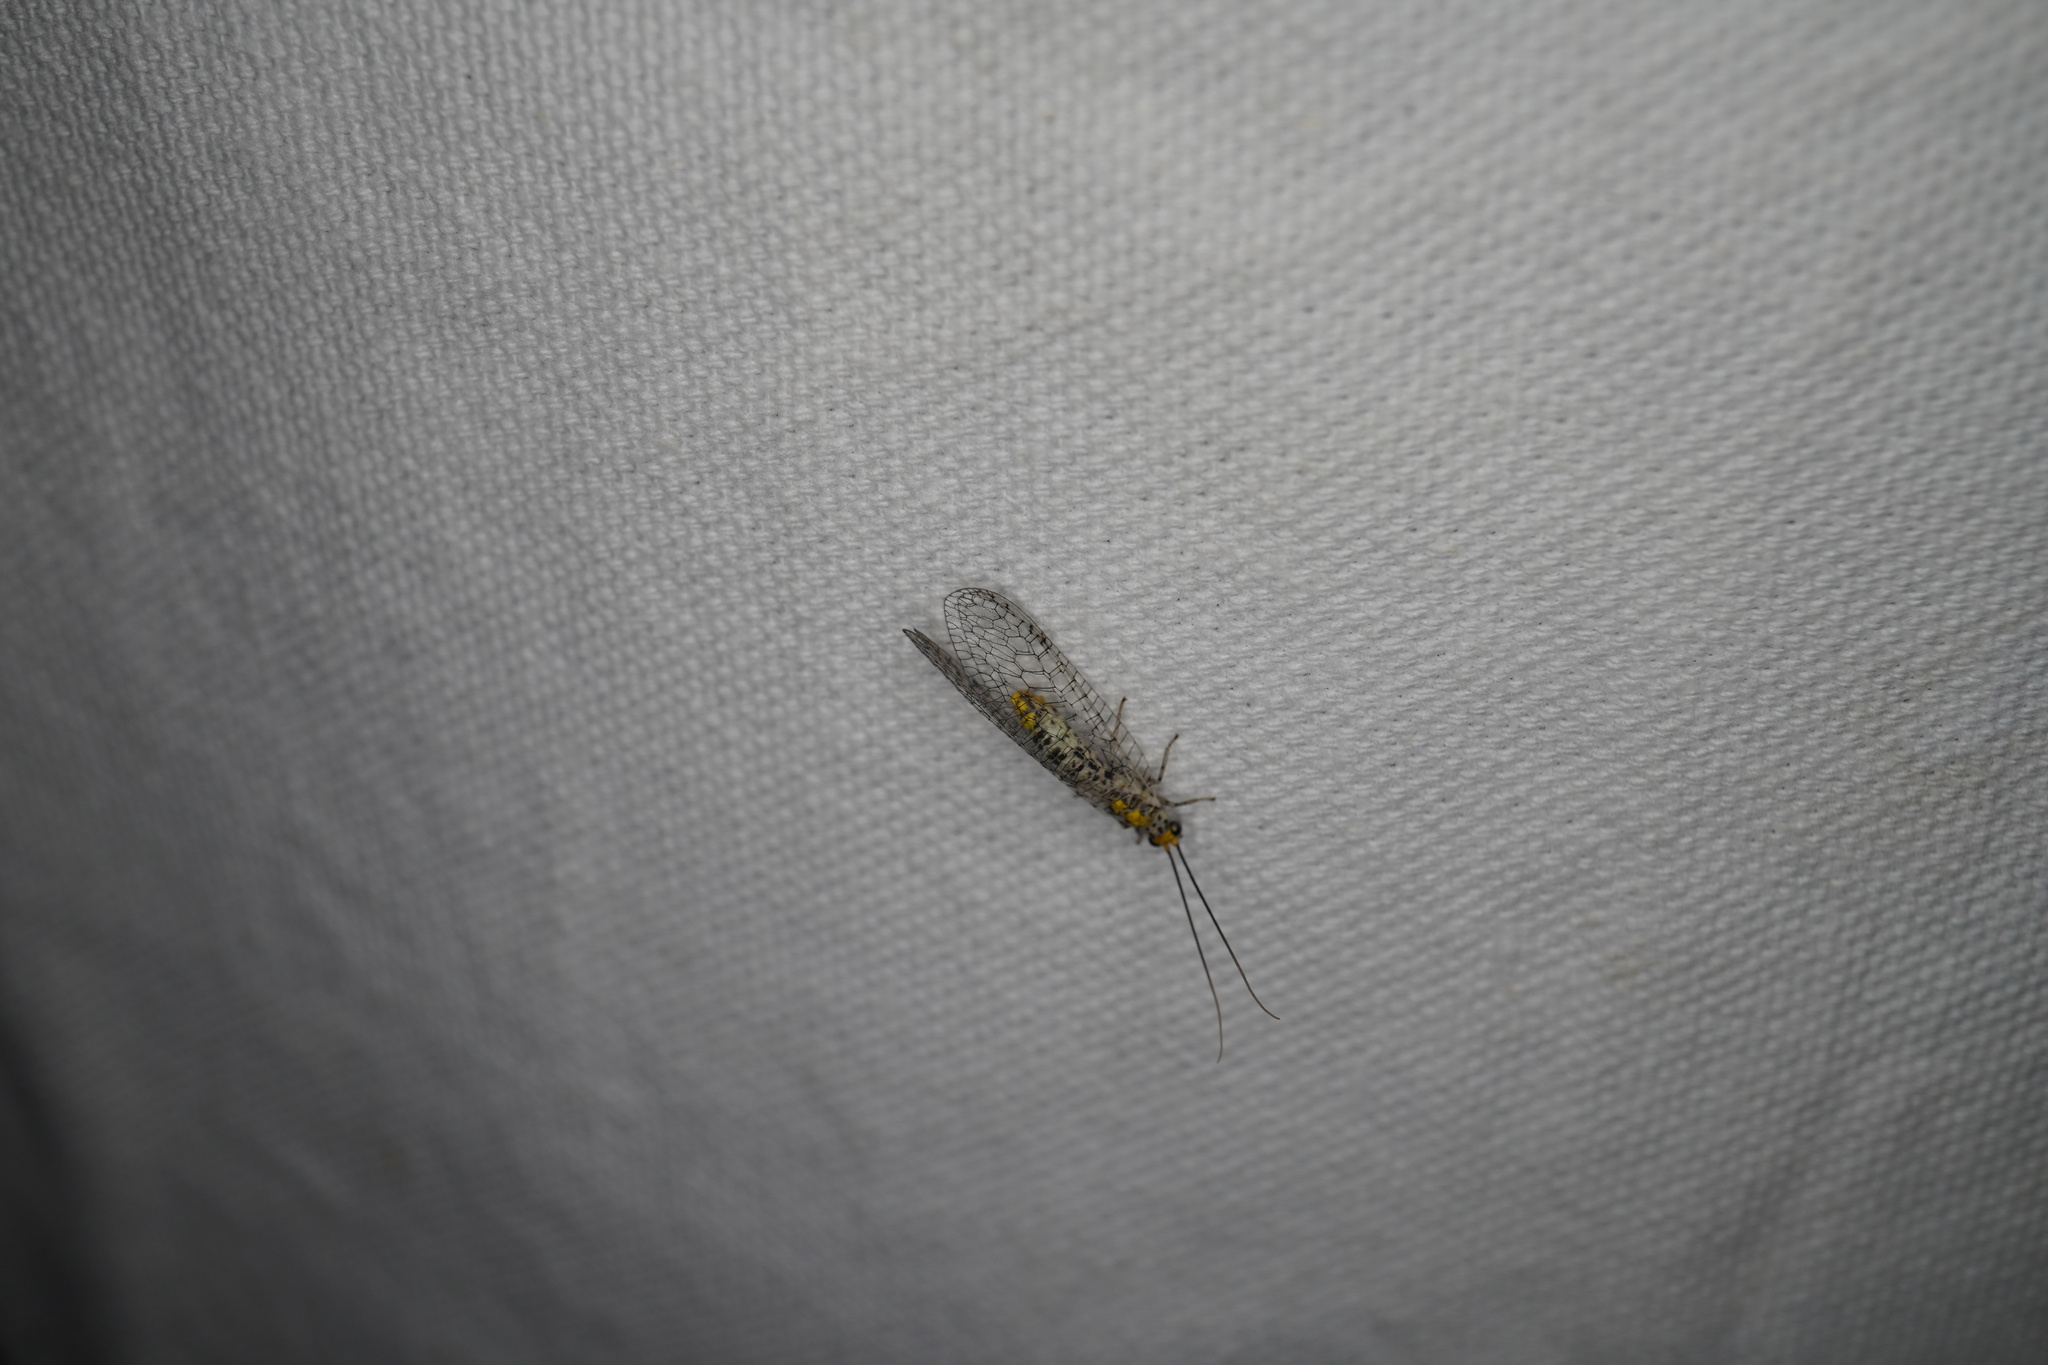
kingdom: Animalia
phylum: Arthropoda
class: Insecta
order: Neuroptera
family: Chrysopidae
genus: Abachrysa
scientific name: Abachrysa eureka
